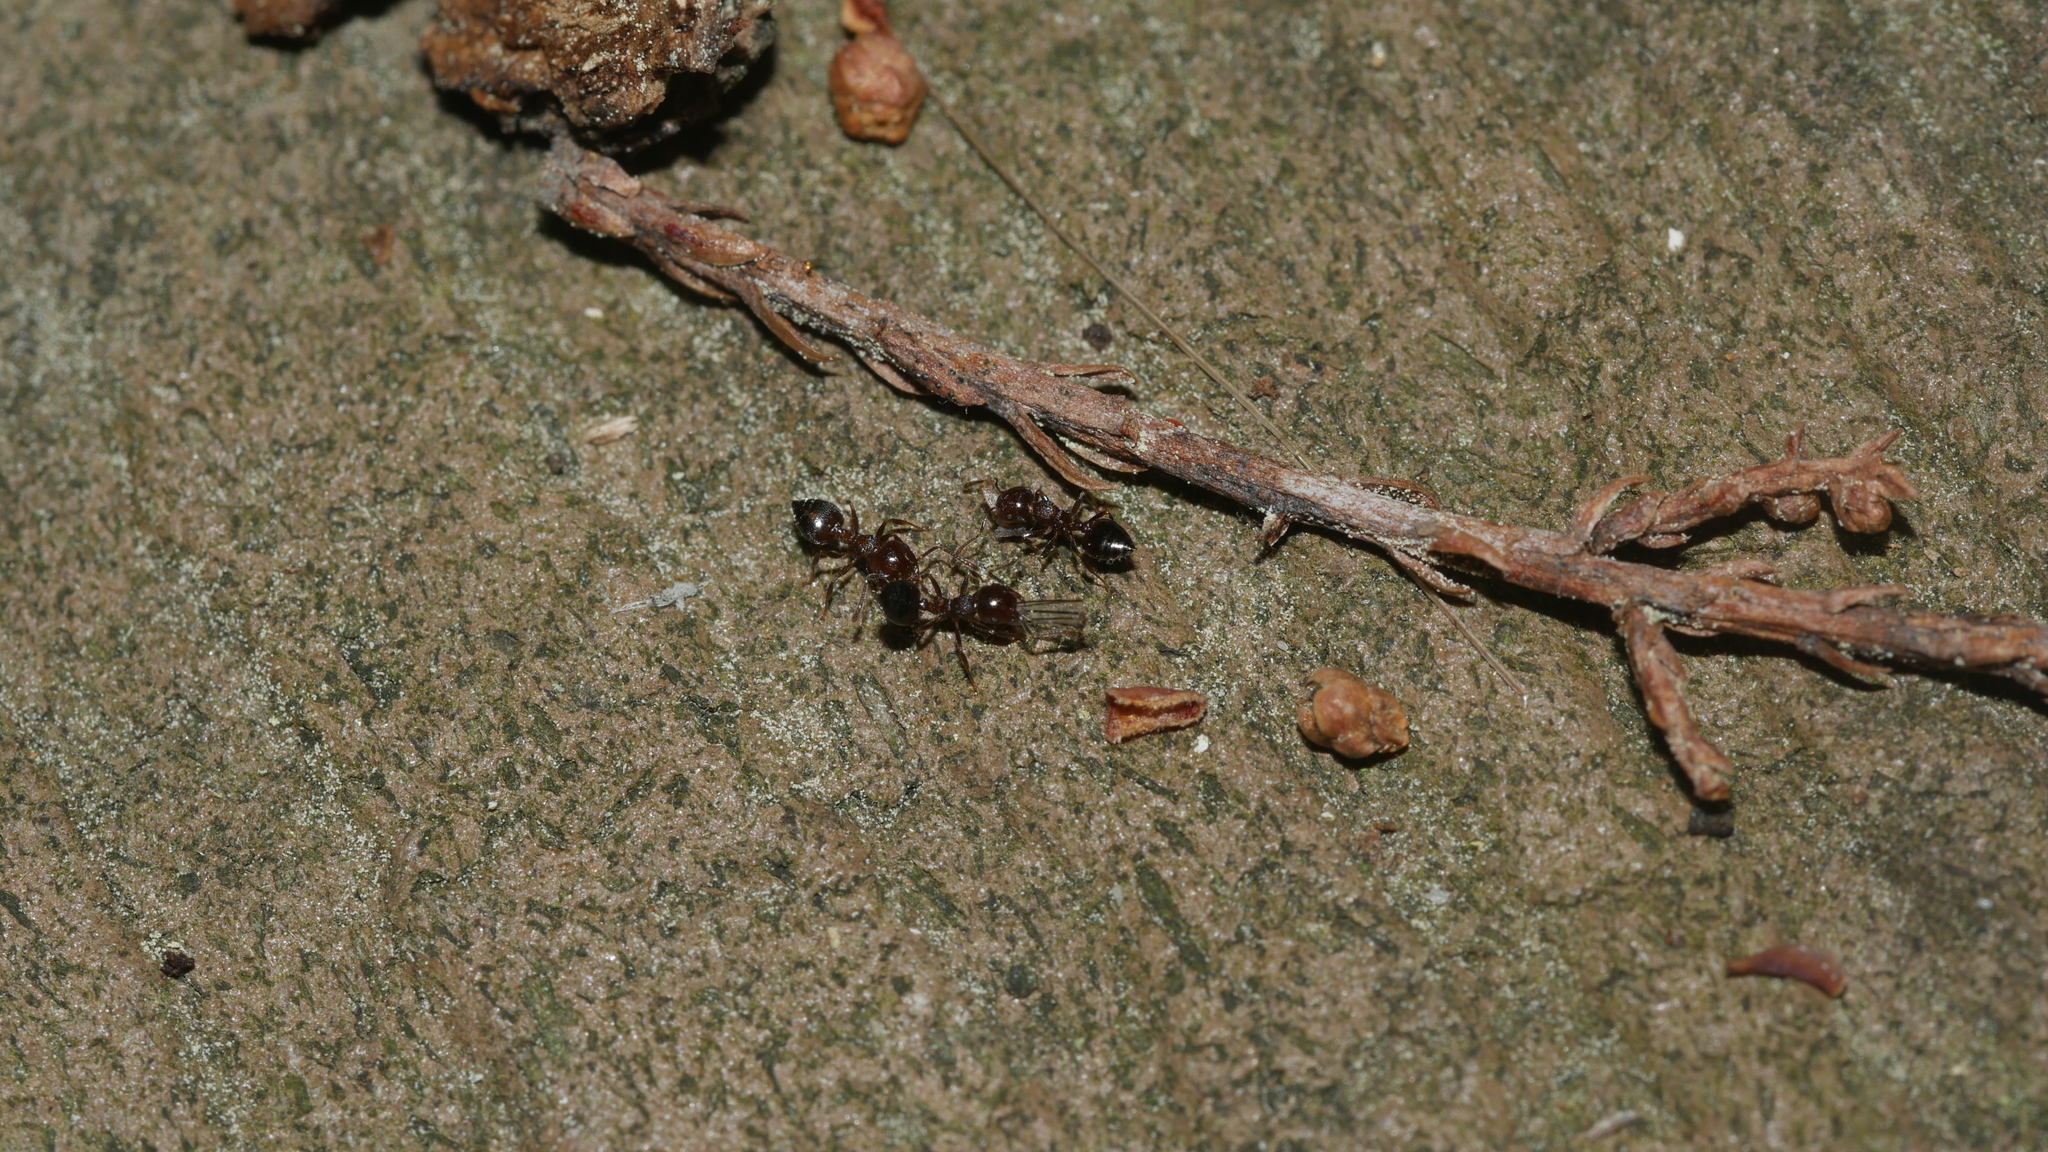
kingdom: Animalia
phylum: Arthropoda
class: Insecta
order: Hymenoptera
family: Formicidae
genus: Crematogaster
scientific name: Crematogaster cerasi
